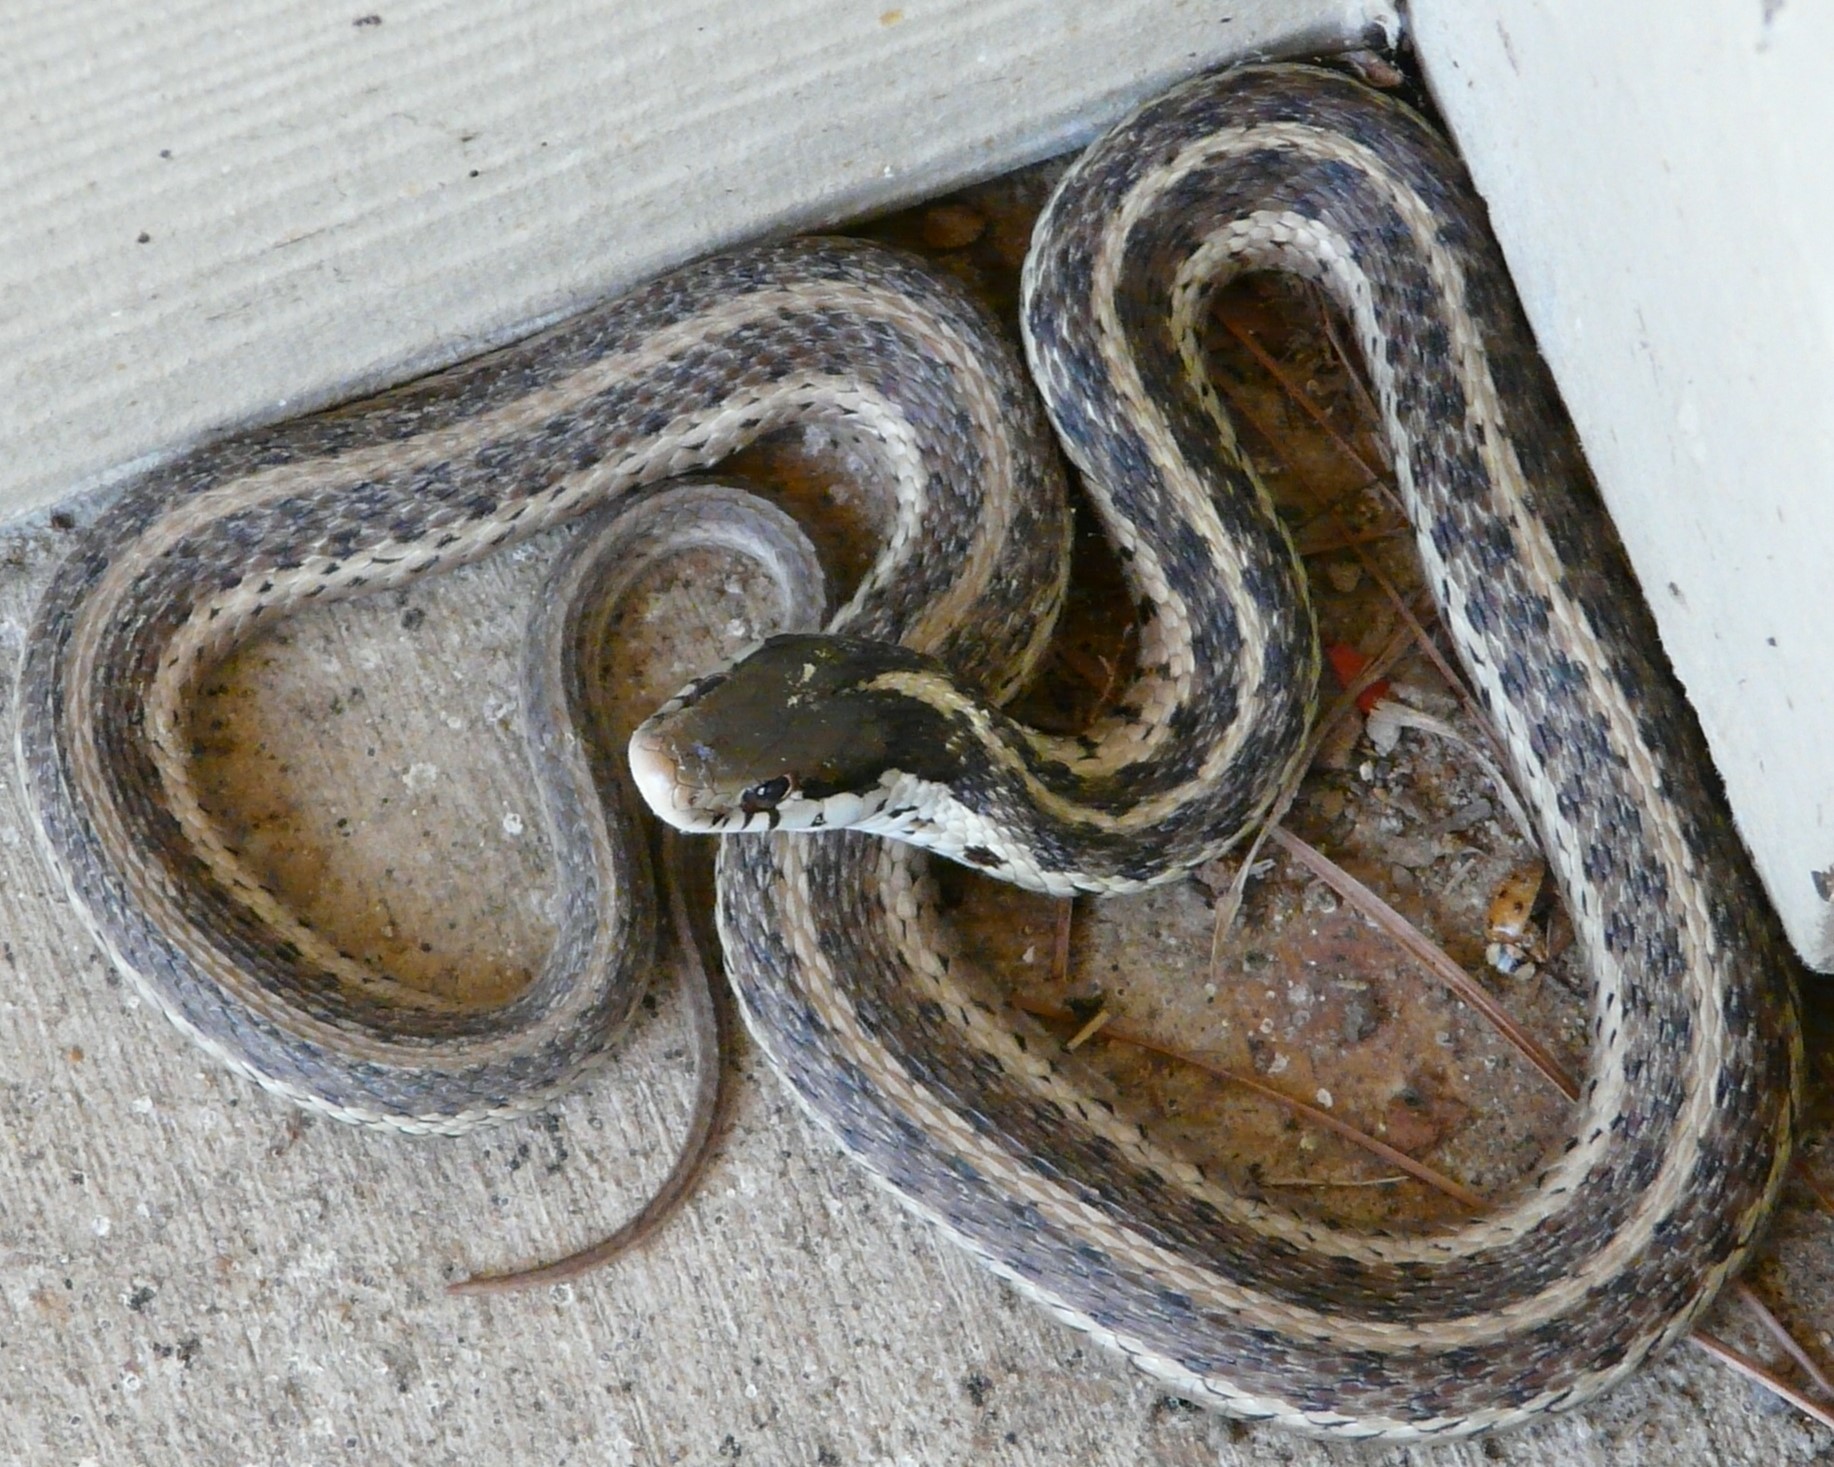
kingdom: Animalia
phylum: Chordata
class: Squamata
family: Colubridae
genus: Thamnophis
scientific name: Thamnophis sirtalis
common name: Common garter snake
